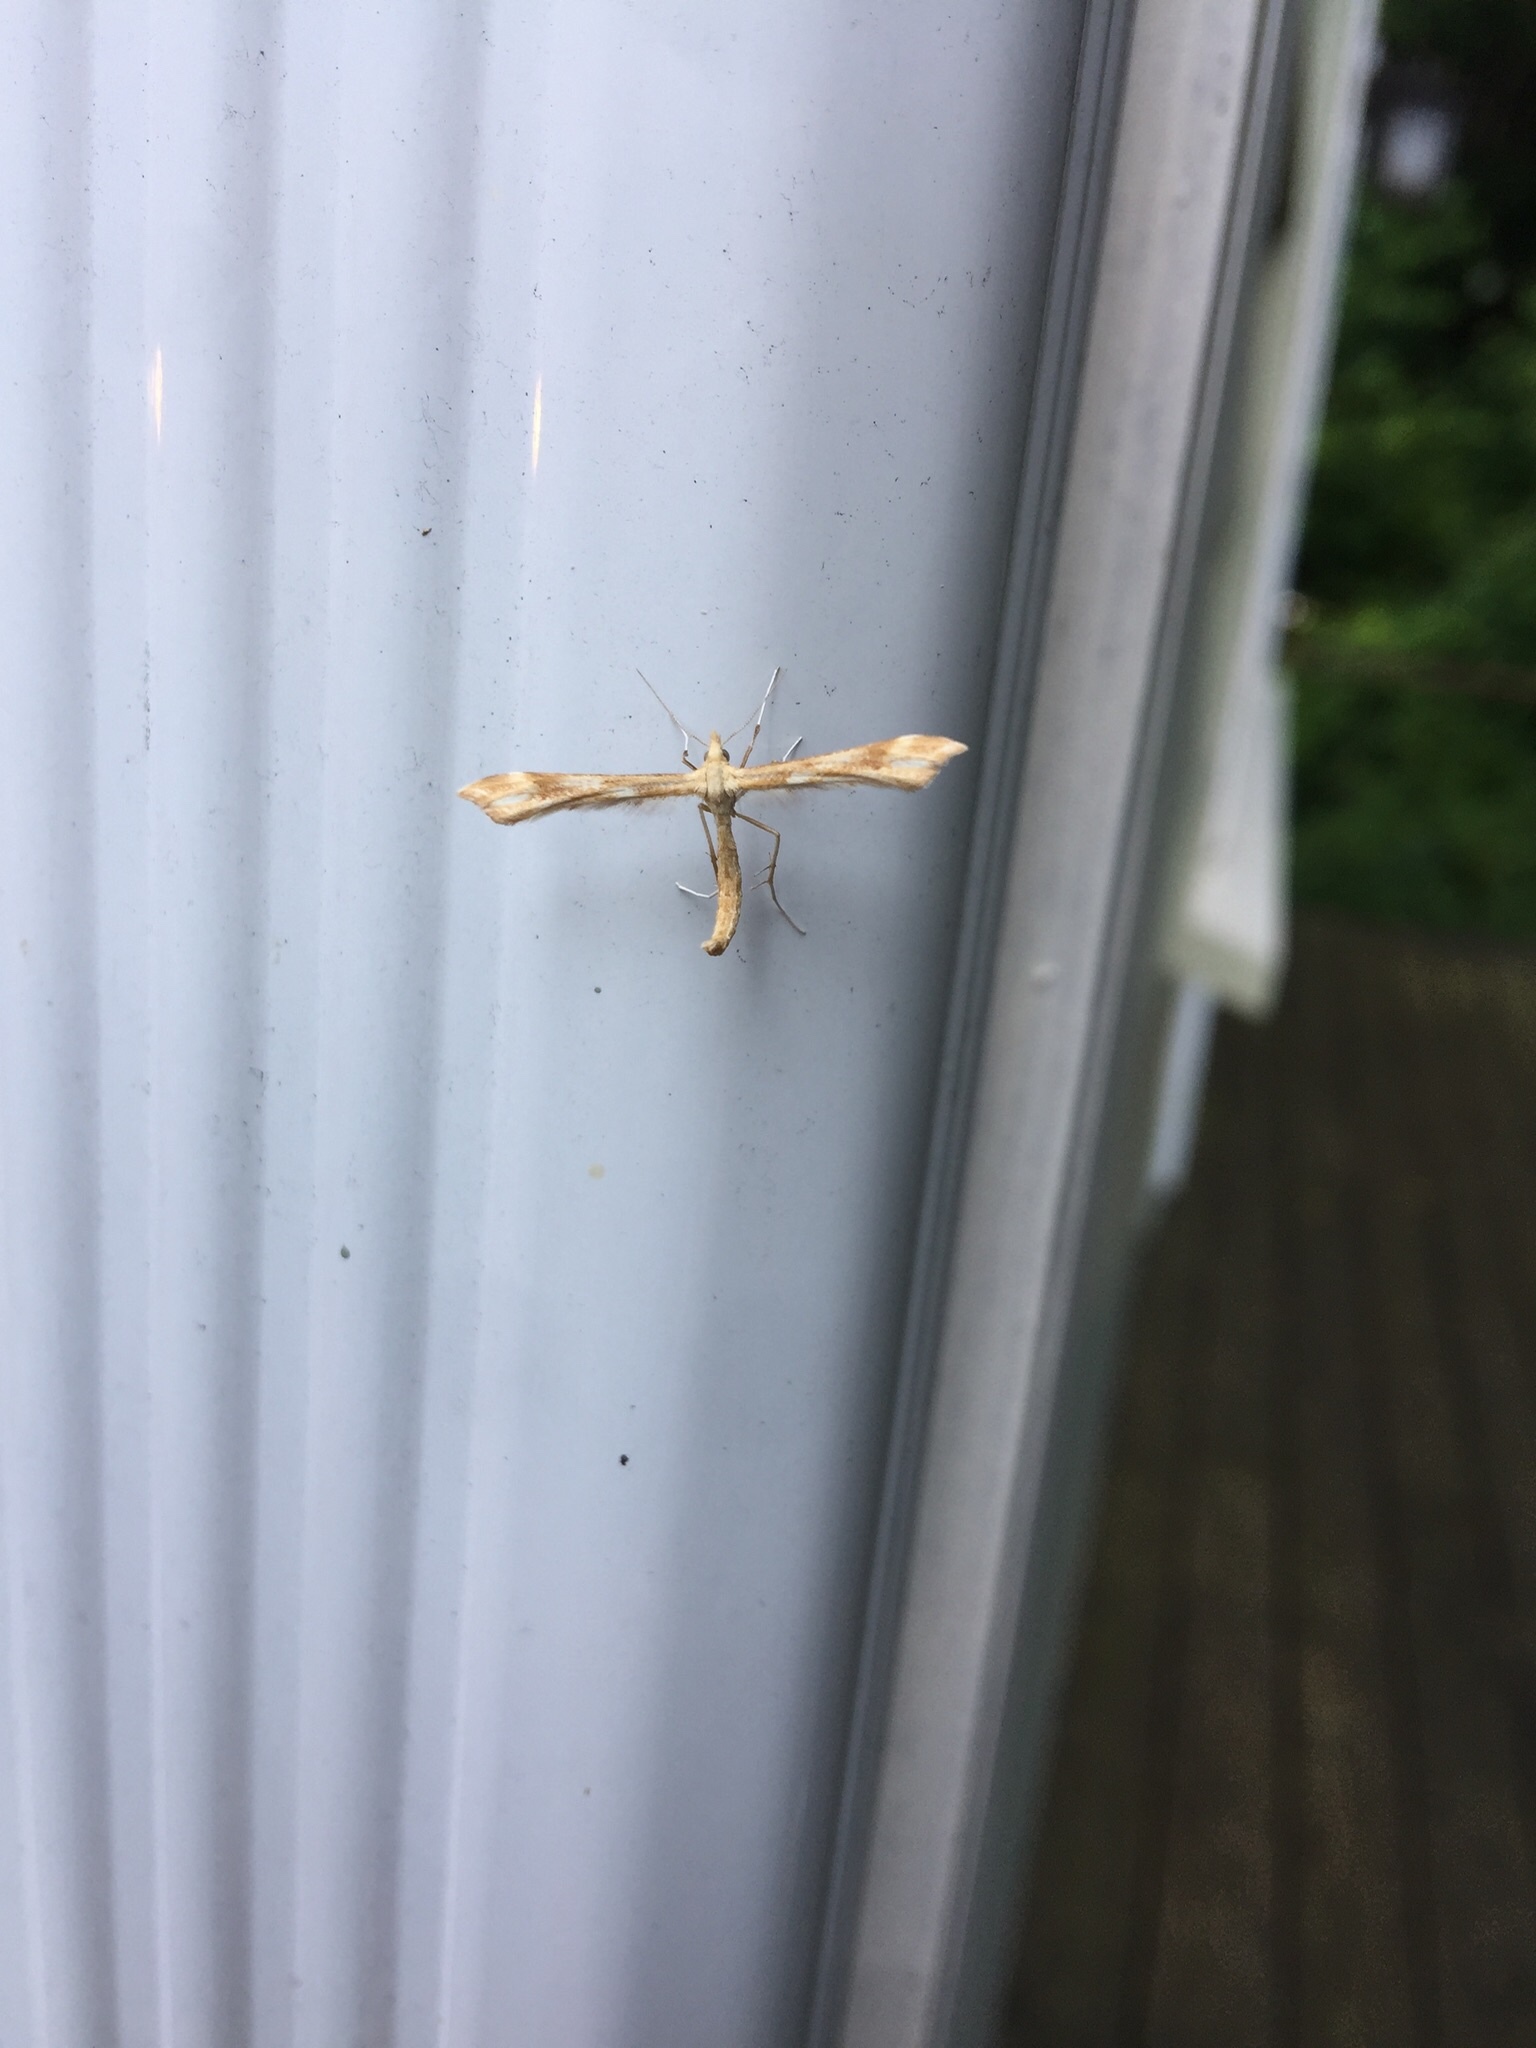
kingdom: Animalia
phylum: Arthropoda
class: Insecta
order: Lepidoptera
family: Pterophoridae
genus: Gillmeria
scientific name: Gillmeria pallidactyla
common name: Yarrow plume
